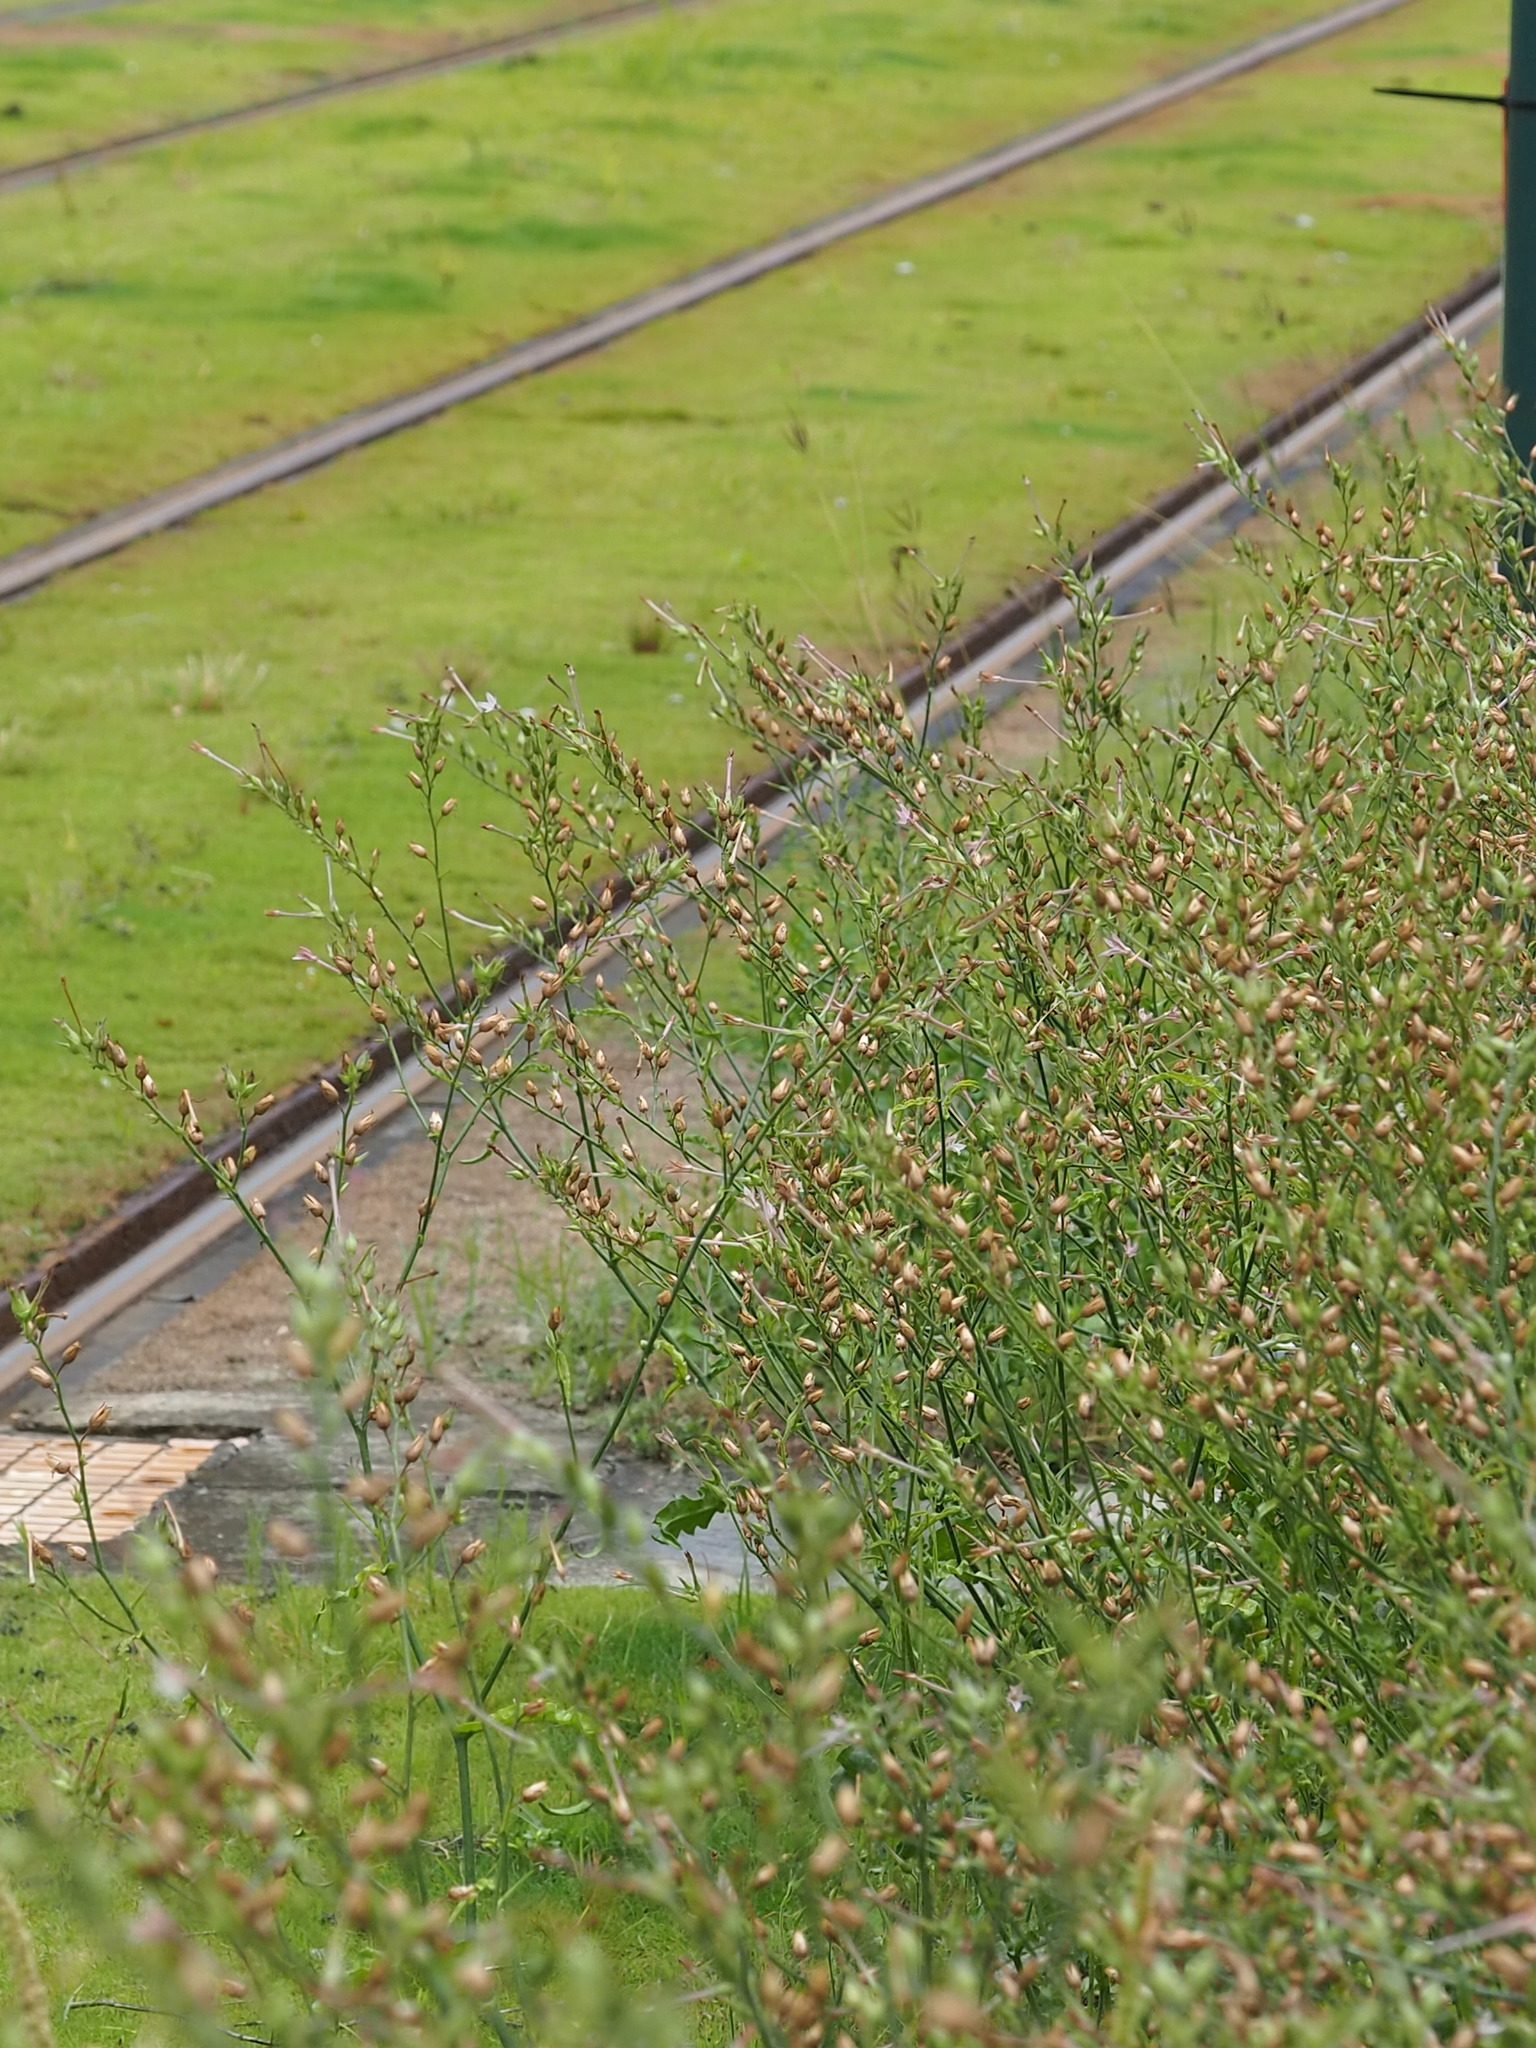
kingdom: Plantae
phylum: Tracheophyta
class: Magnoliopsida
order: Solanales
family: Solanaceae
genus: Nicotiana
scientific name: Nicotiana plumbaginifolia
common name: Tex-mex tobacco
